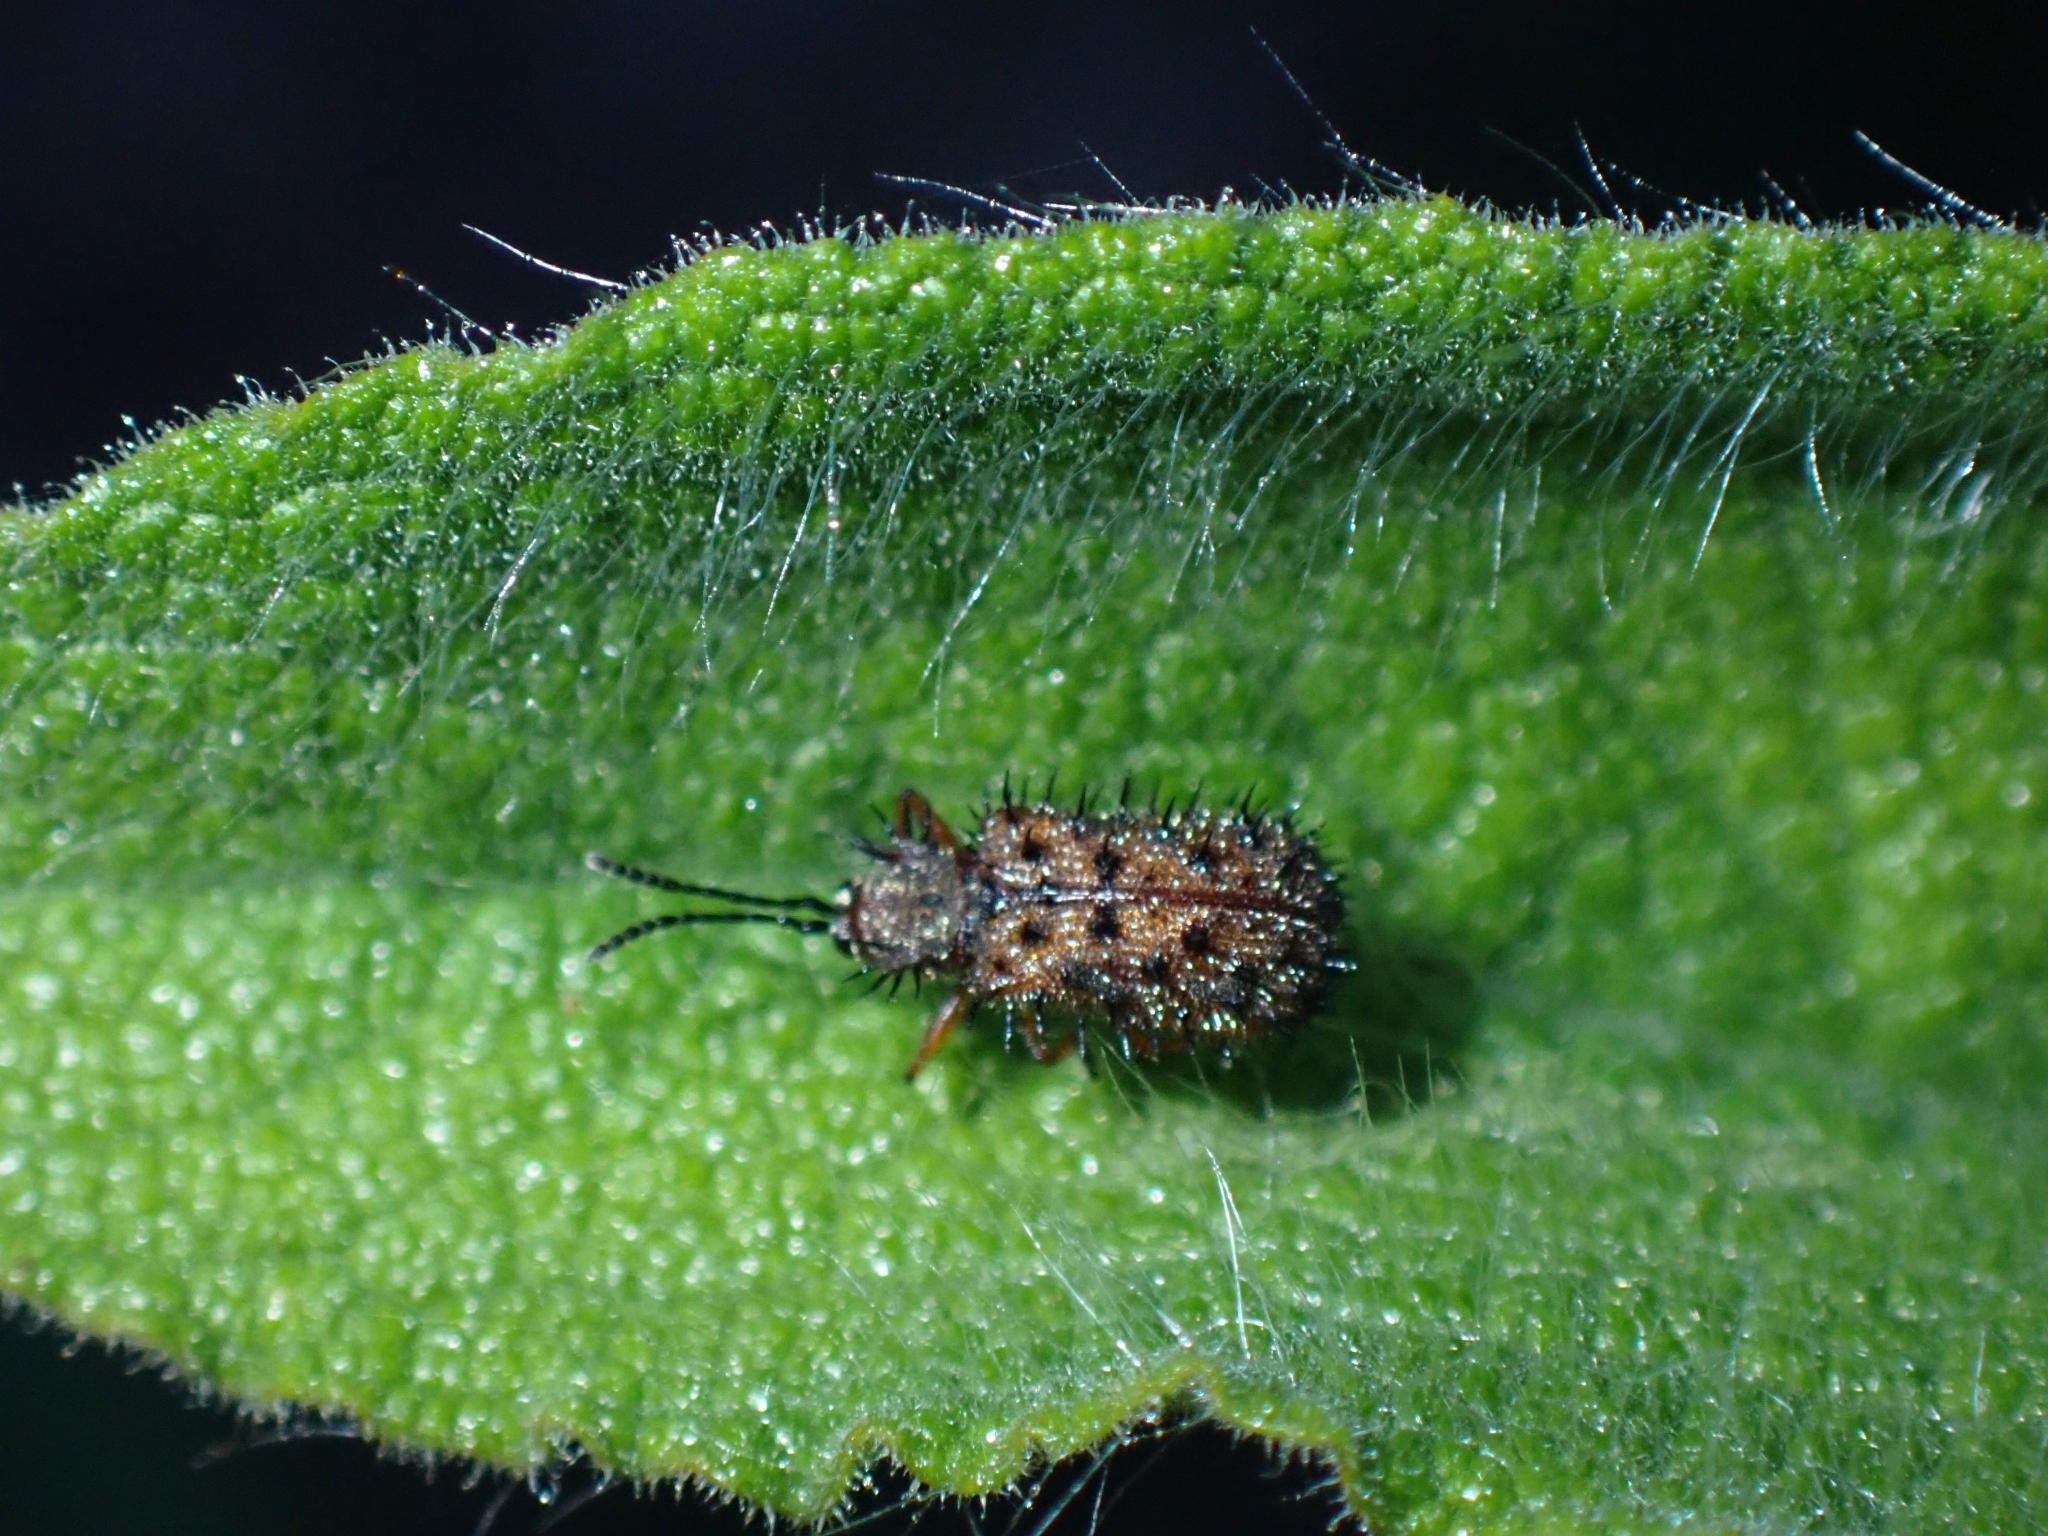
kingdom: Animalia
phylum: Arthropoda
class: Insecta
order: Coleoptera
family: Chrysomelidae
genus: Dicladispa
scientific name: Dicladispa occator
